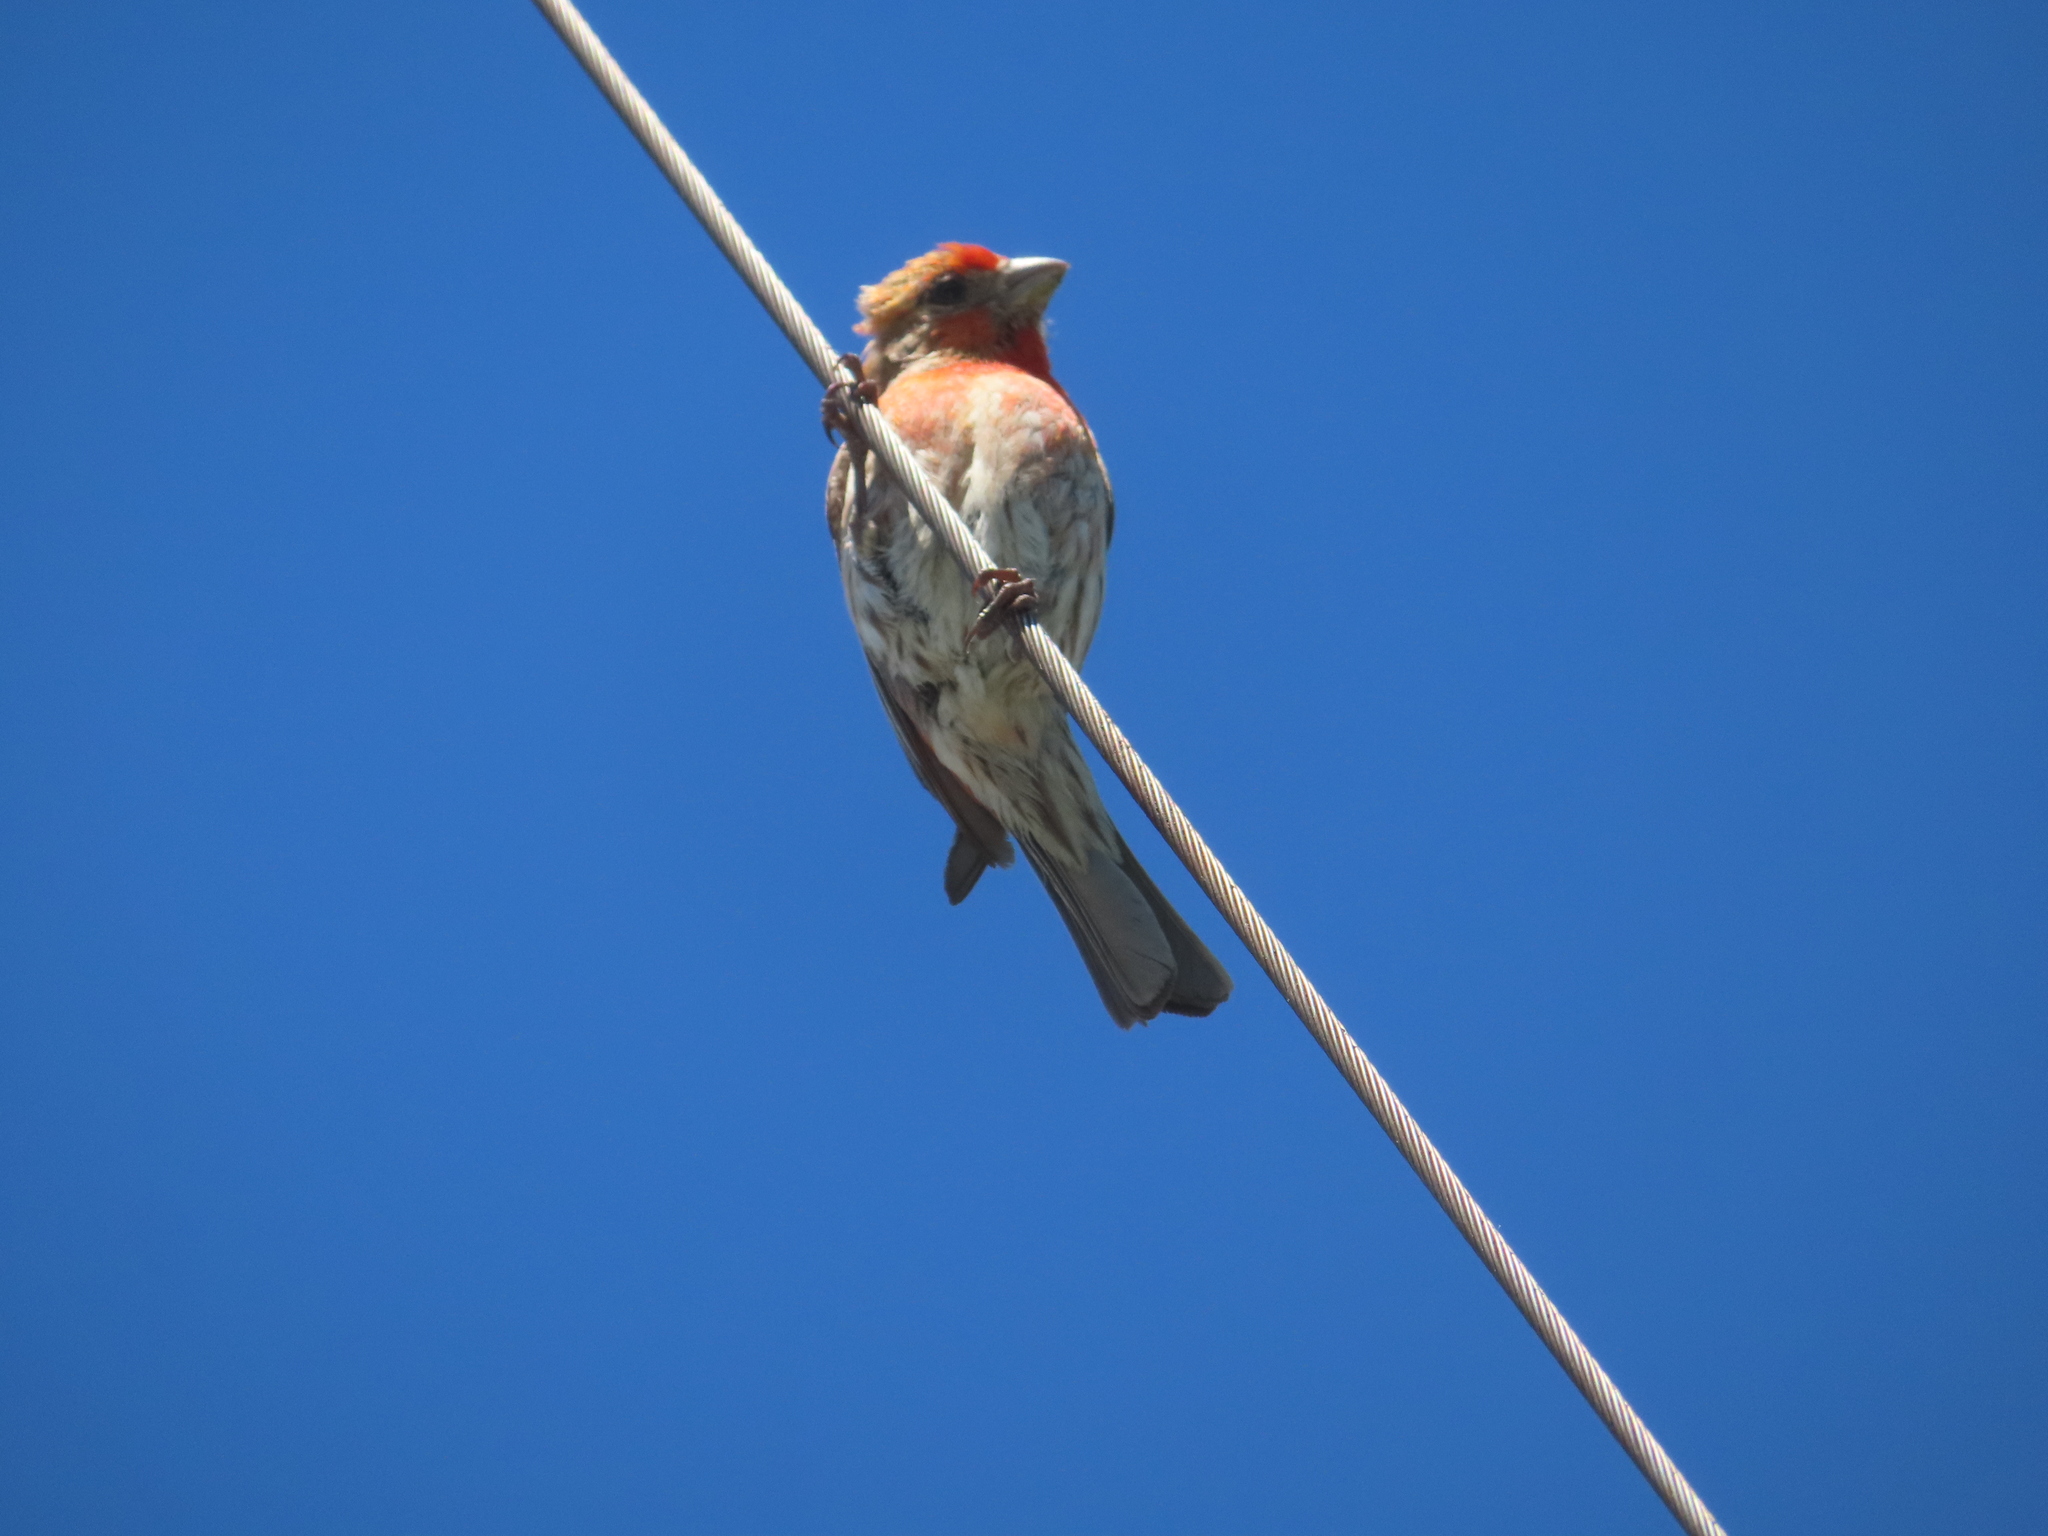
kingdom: Animalia
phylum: Chordata
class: Aves
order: Passeriformes
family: Fringillidae
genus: Haemorhous
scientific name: Haemorhous mexicanus
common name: House finch
